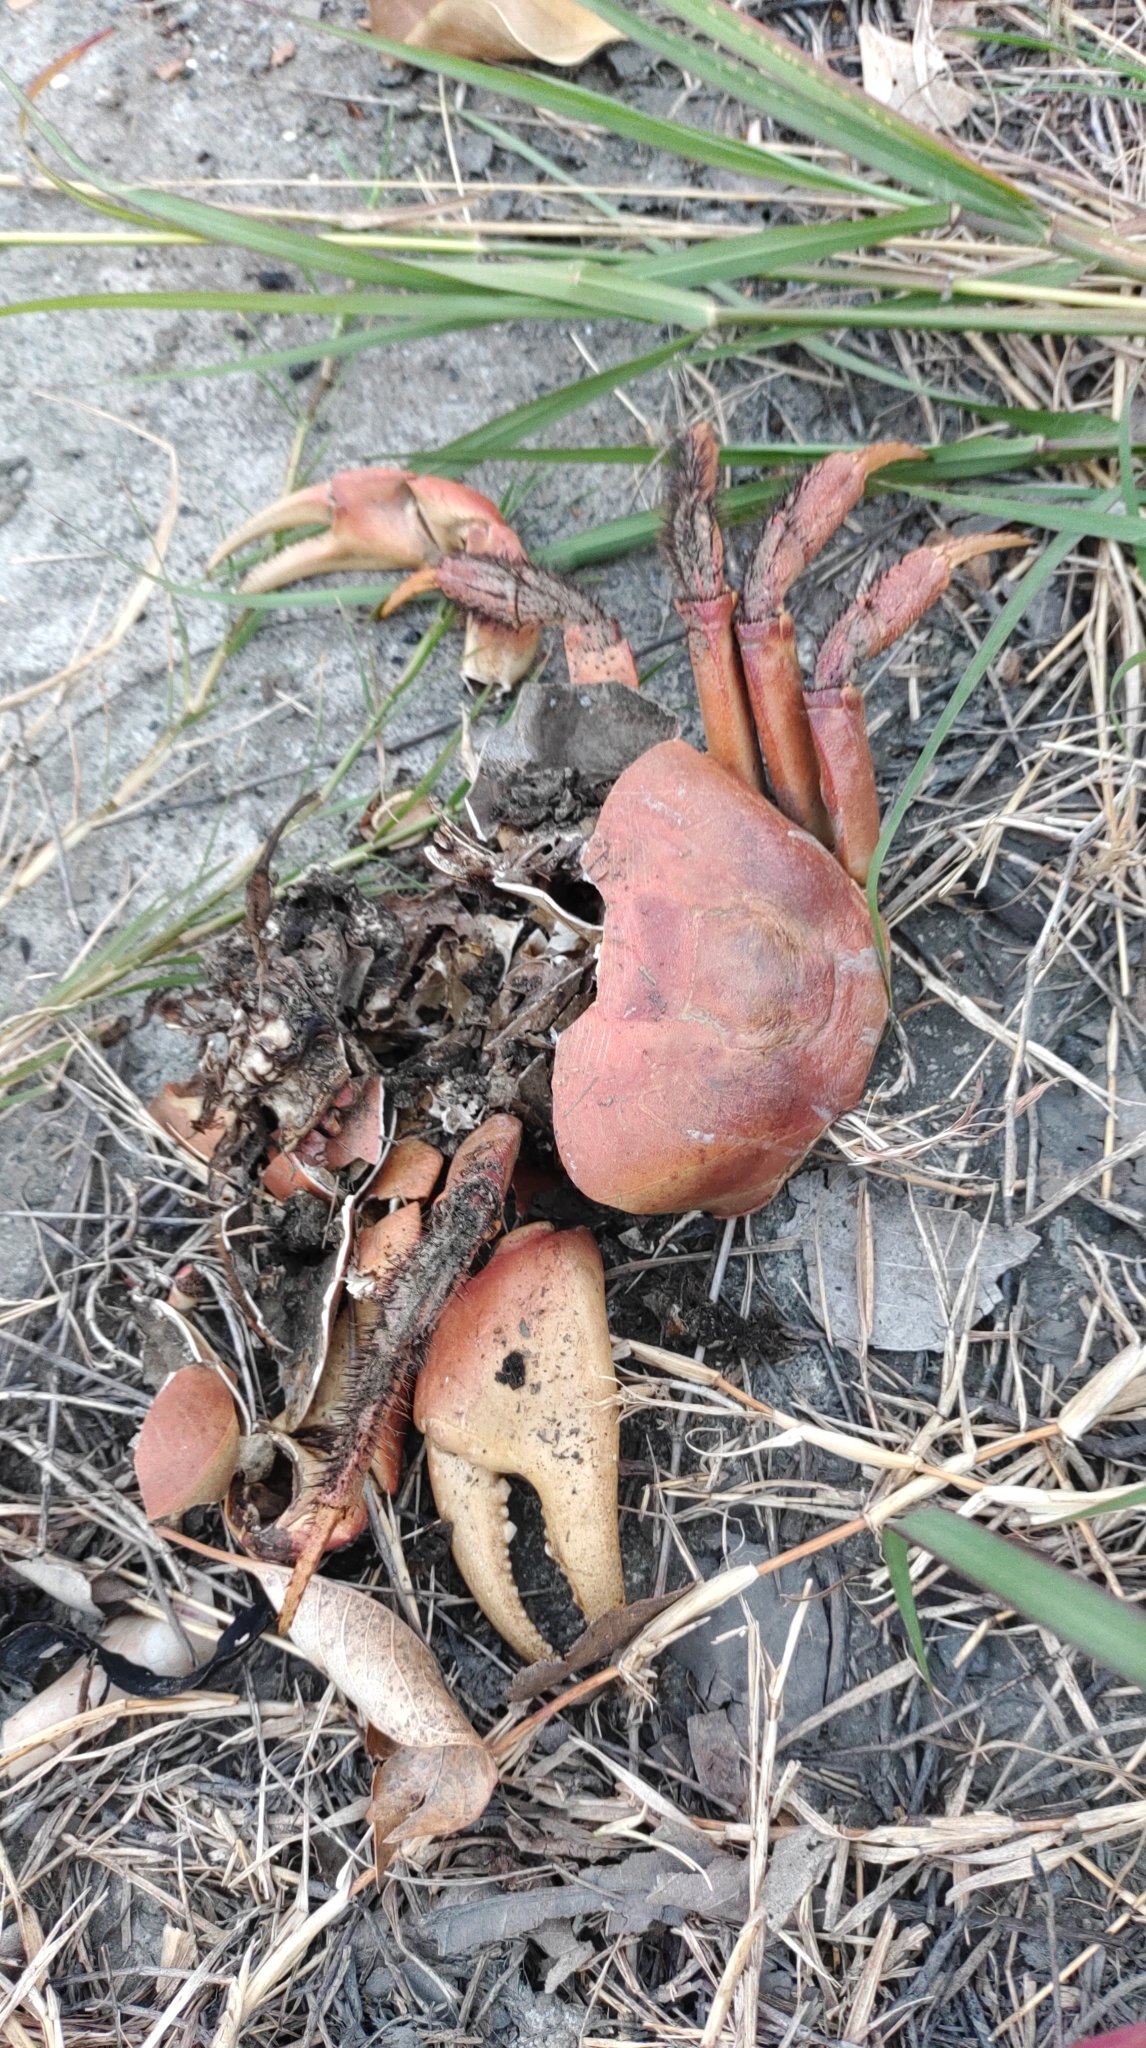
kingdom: Animalia
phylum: Arthropoda
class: Malacostraca
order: Decapoda
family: Gecarcinidae
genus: Cardisoma
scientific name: Cardisoma carnifex
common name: Brown land crab
